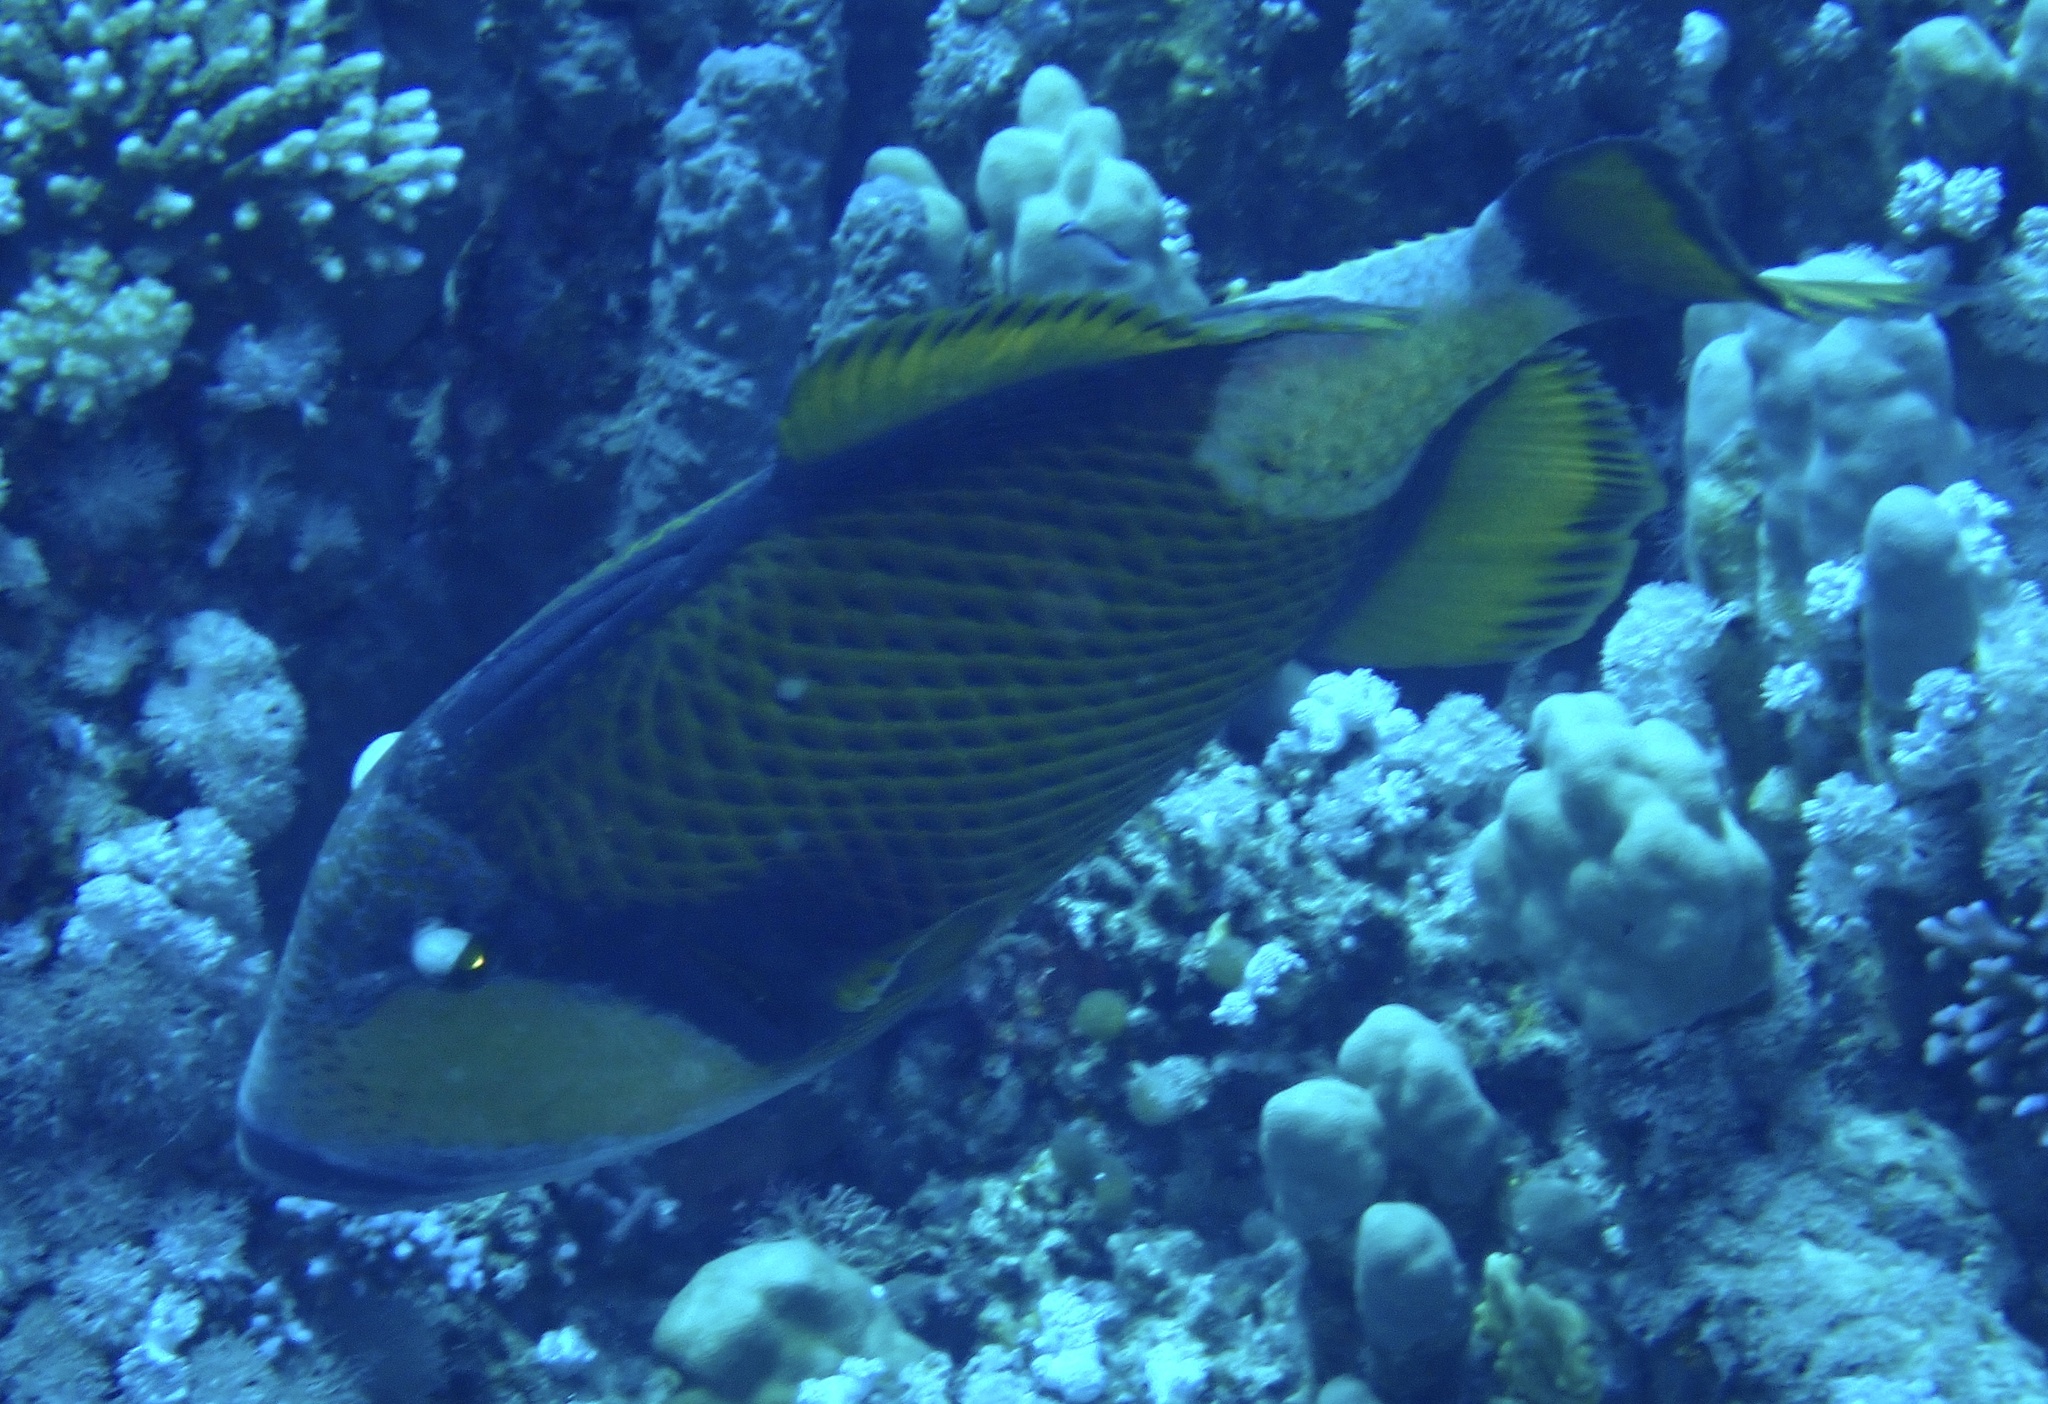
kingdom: Animalia
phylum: Chordata
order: Tetraodontiformes
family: Balistidae
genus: Balistoides
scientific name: Balistoides viridescens
